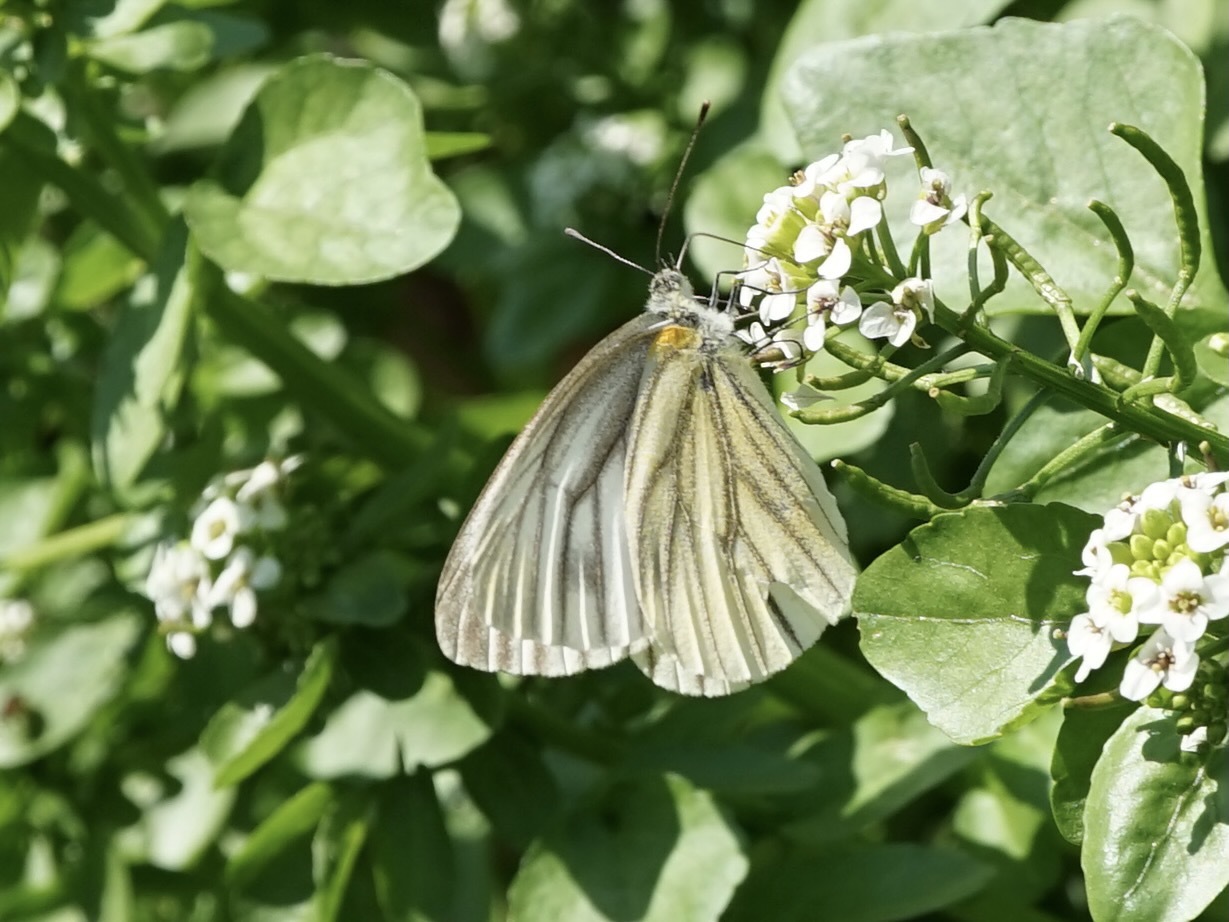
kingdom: Animalia
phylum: Arthropoda
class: Insecta
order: Lepidoptera
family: Pieridae
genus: Pieris
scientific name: Pieris melete
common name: Asian green-veined white
